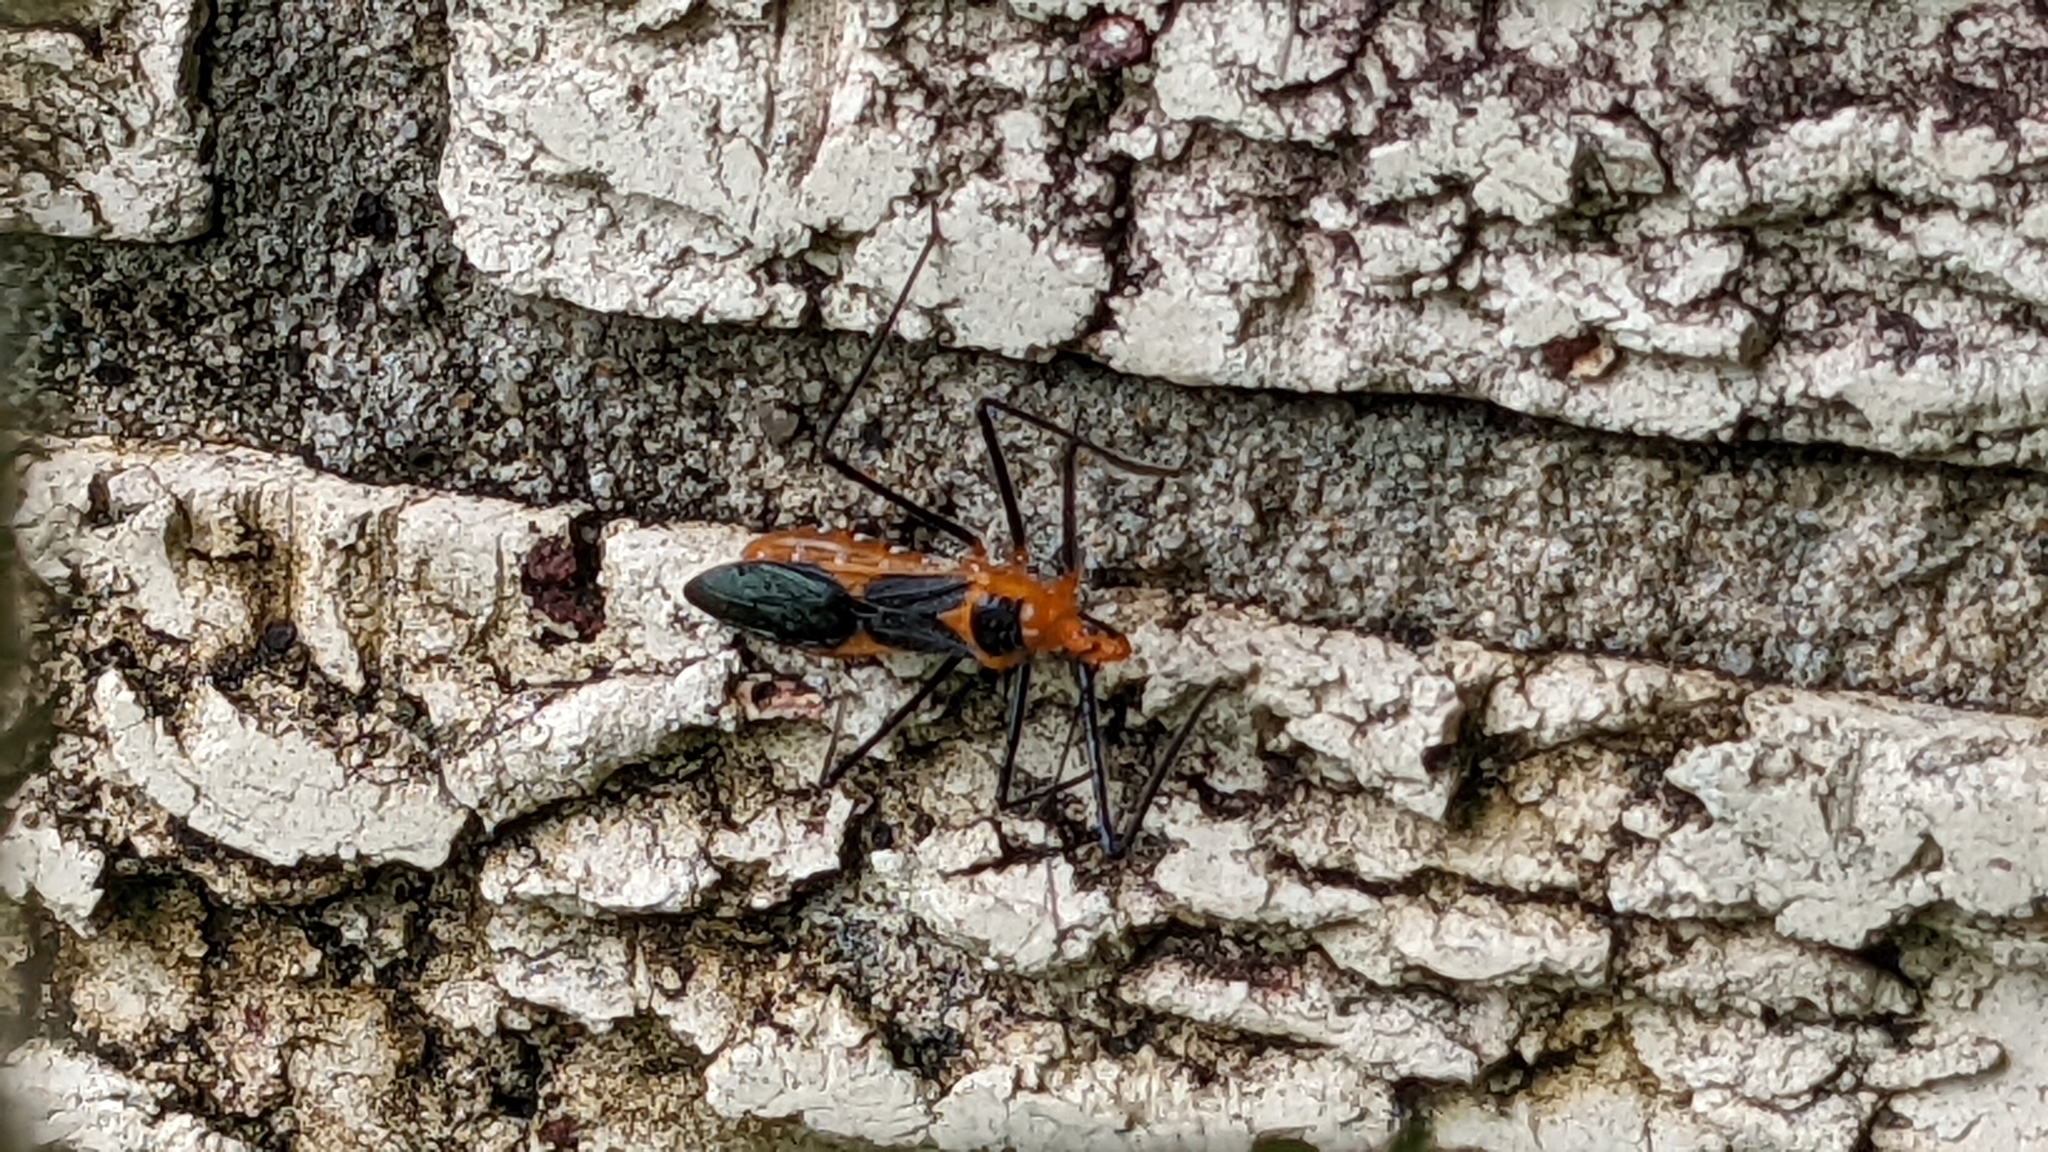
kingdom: Animalia
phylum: Arthropoda
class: Insecta
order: Hemiptera
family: Reduviidae
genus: Zelus
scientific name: Zelus longipes
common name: Milkweed assassin bug
